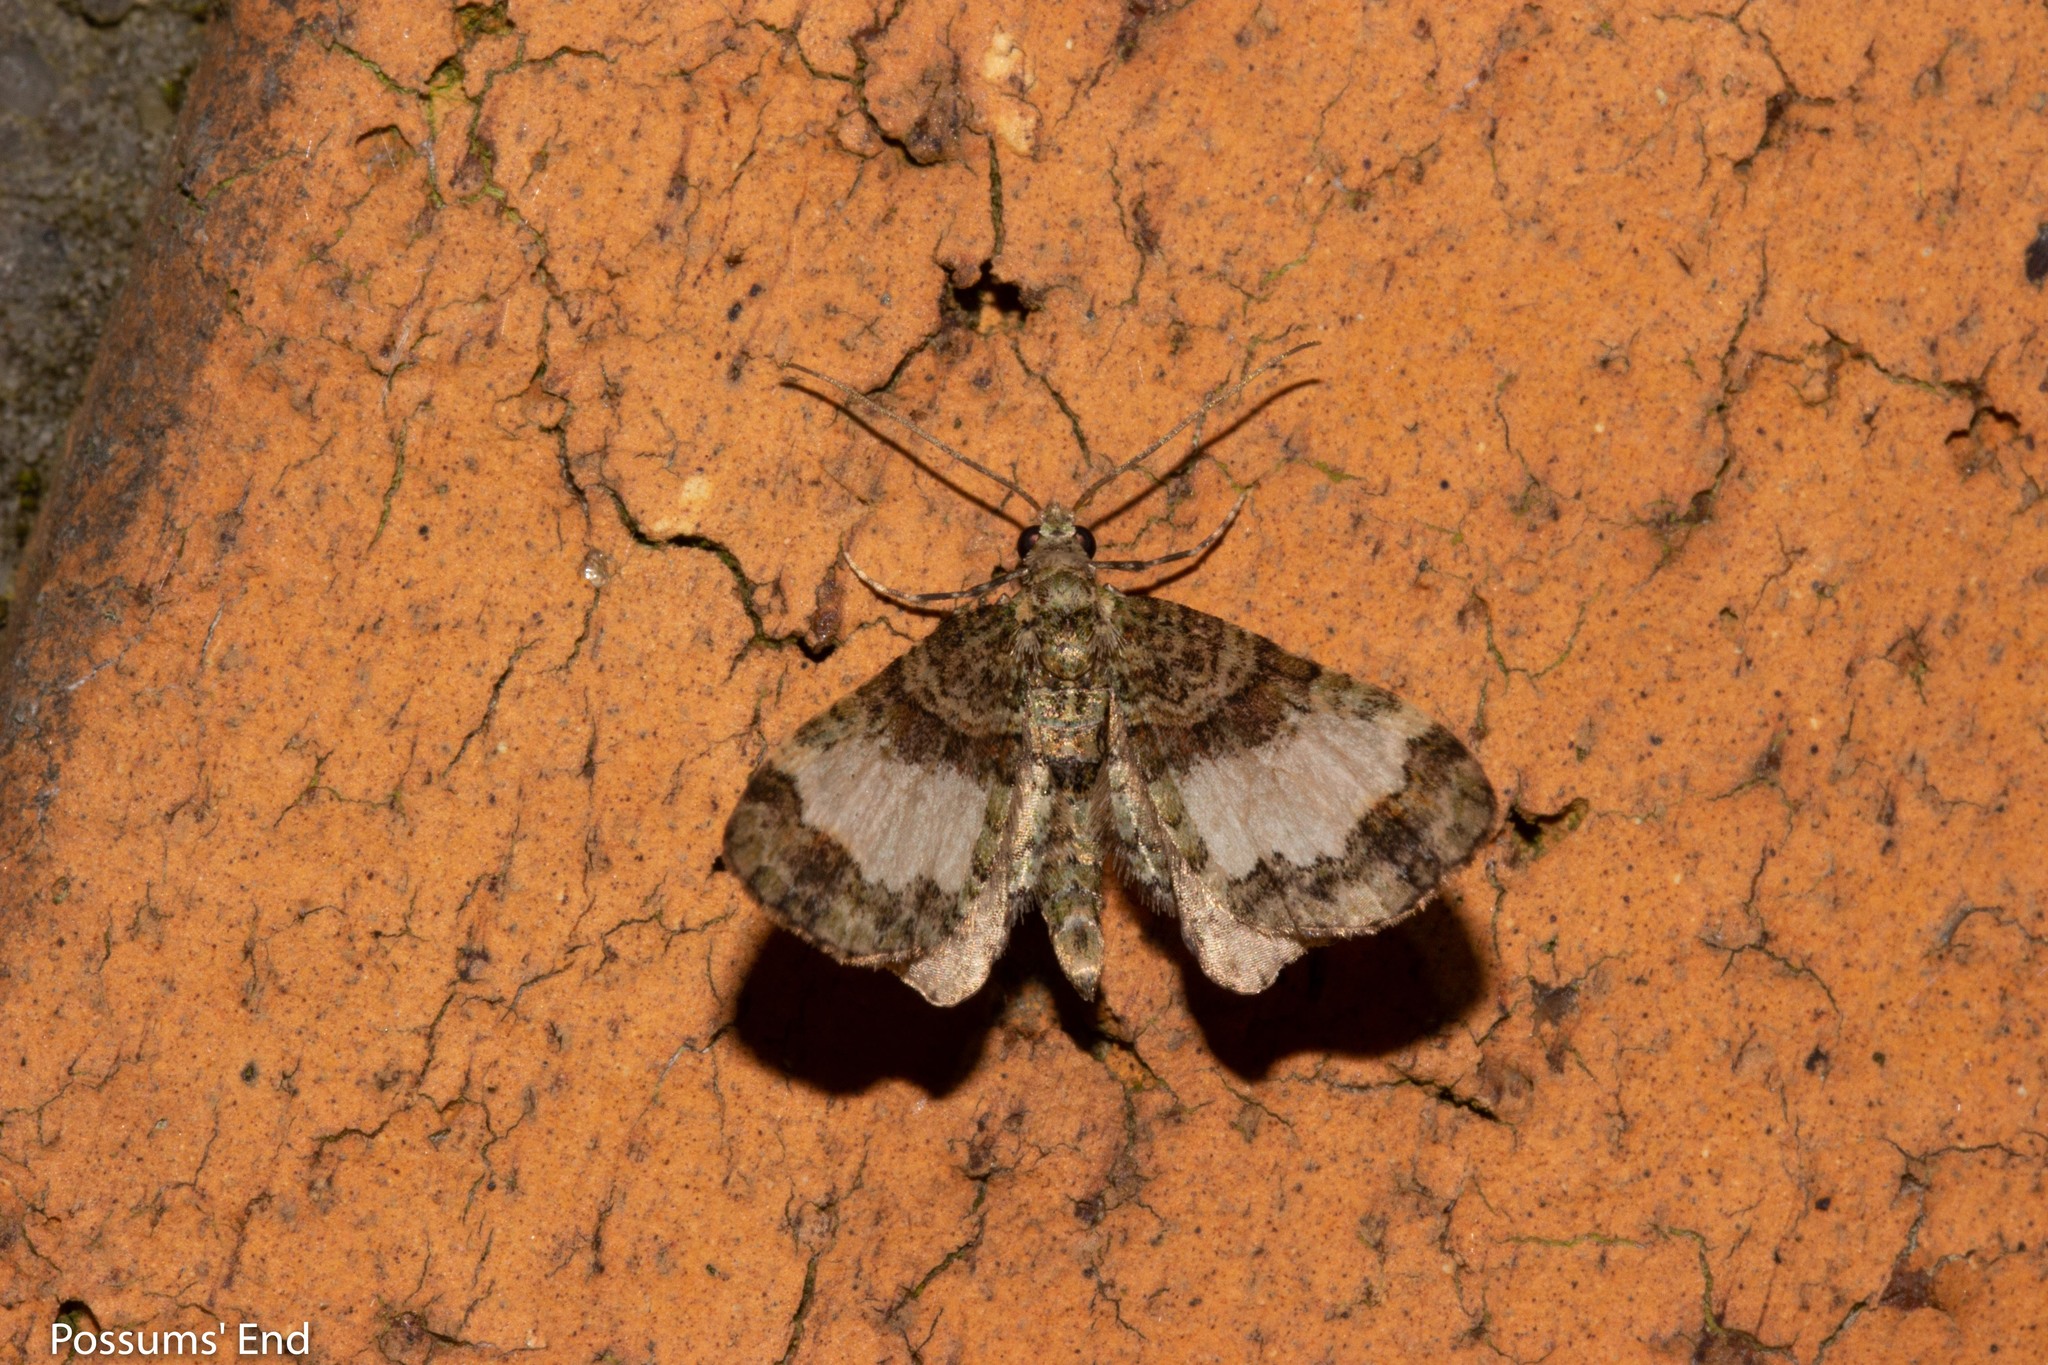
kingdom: Animalia
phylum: Arthropoda
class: Insecta
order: Lepidoptera
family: Geometridae
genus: Idaea
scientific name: Idaea mutanda
